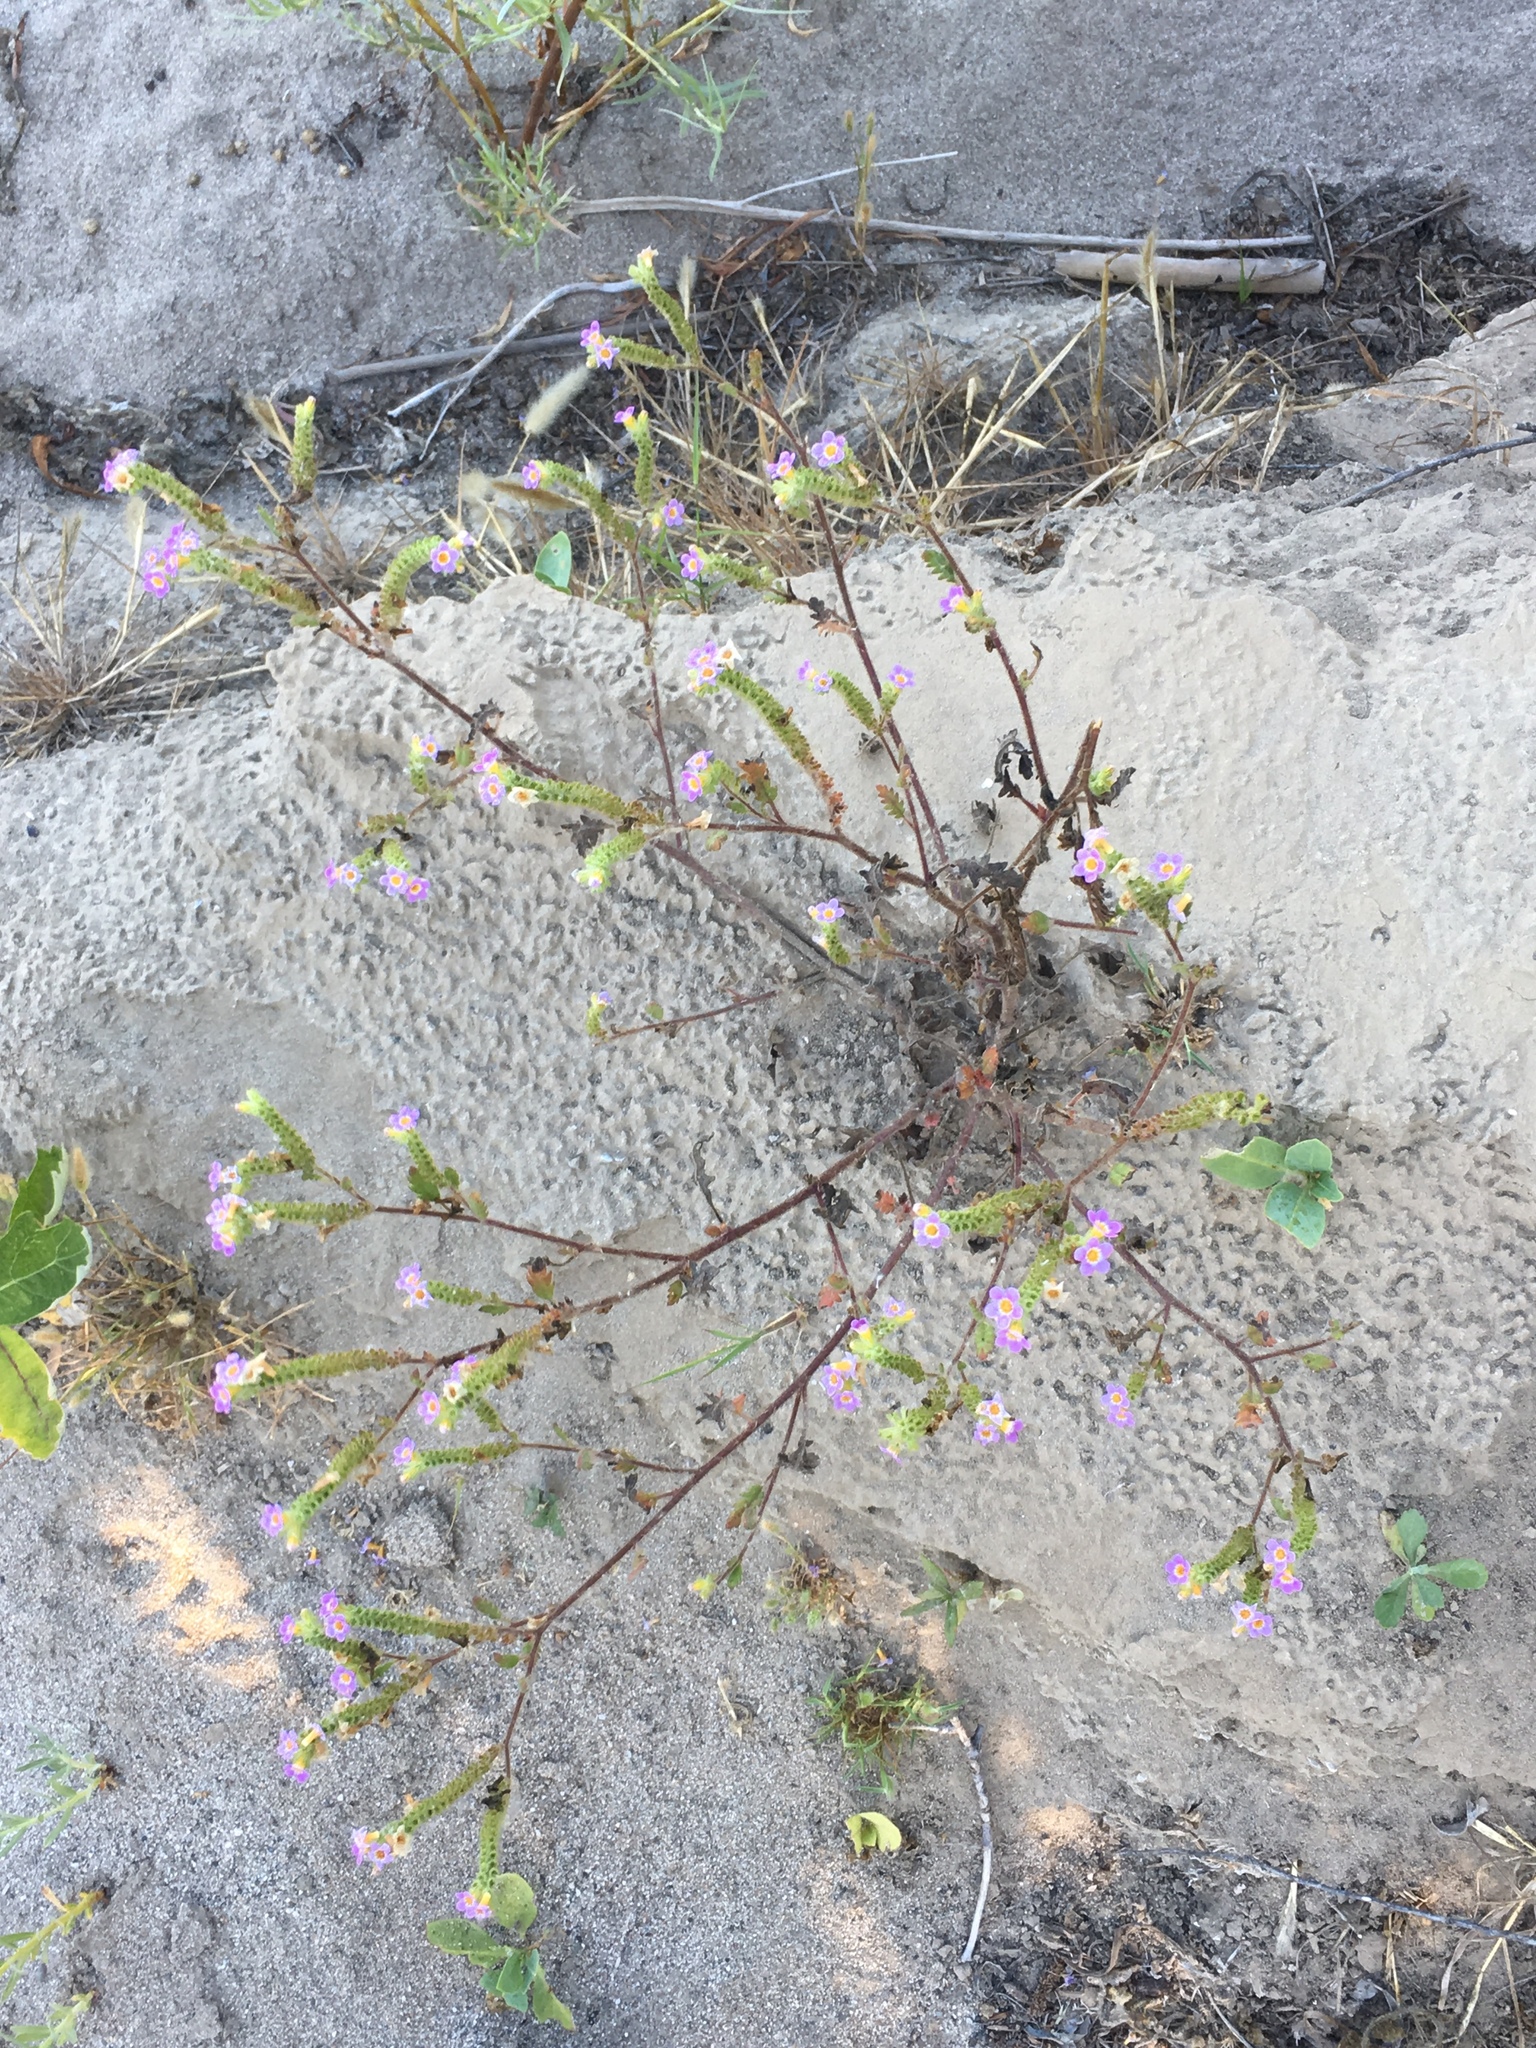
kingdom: Plantae
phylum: Tracheophyta
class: Magnoliopsida
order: Boraginales
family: Hydrophyllaceae
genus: Phacelia
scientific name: Phacelia brachyloba
